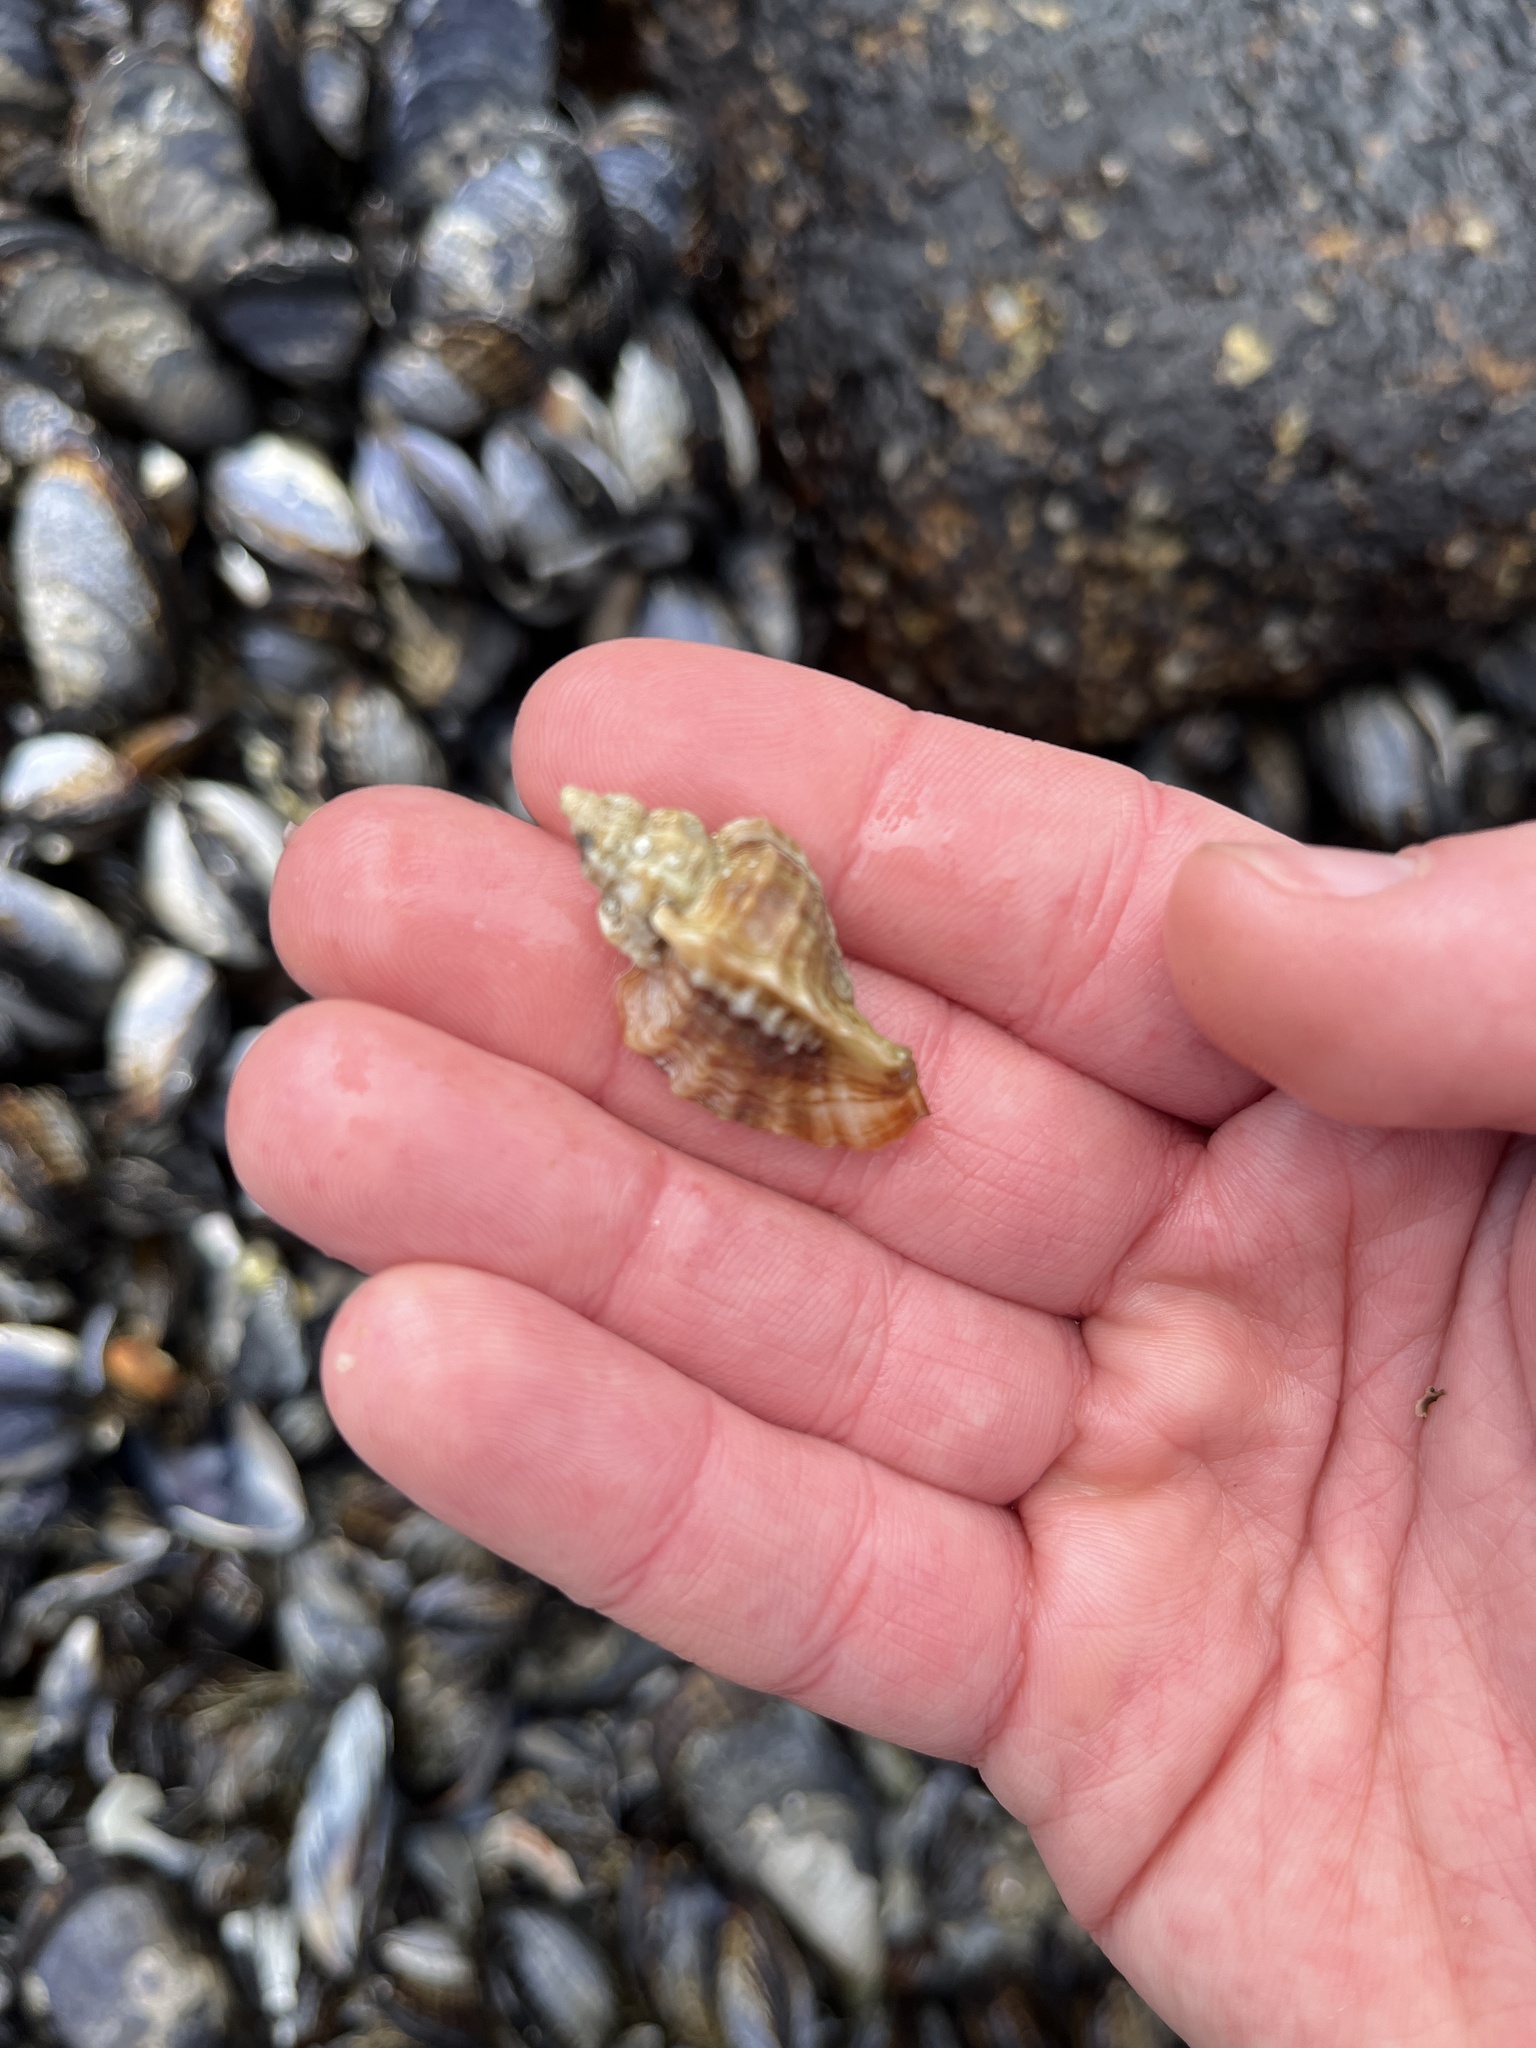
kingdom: Animalia
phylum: Mollusca
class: Gastropoda
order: Neogastropoda
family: Muricidae
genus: Ceratostoma
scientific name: Ceratostoma foliatum
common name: Foliate thorn purpura
